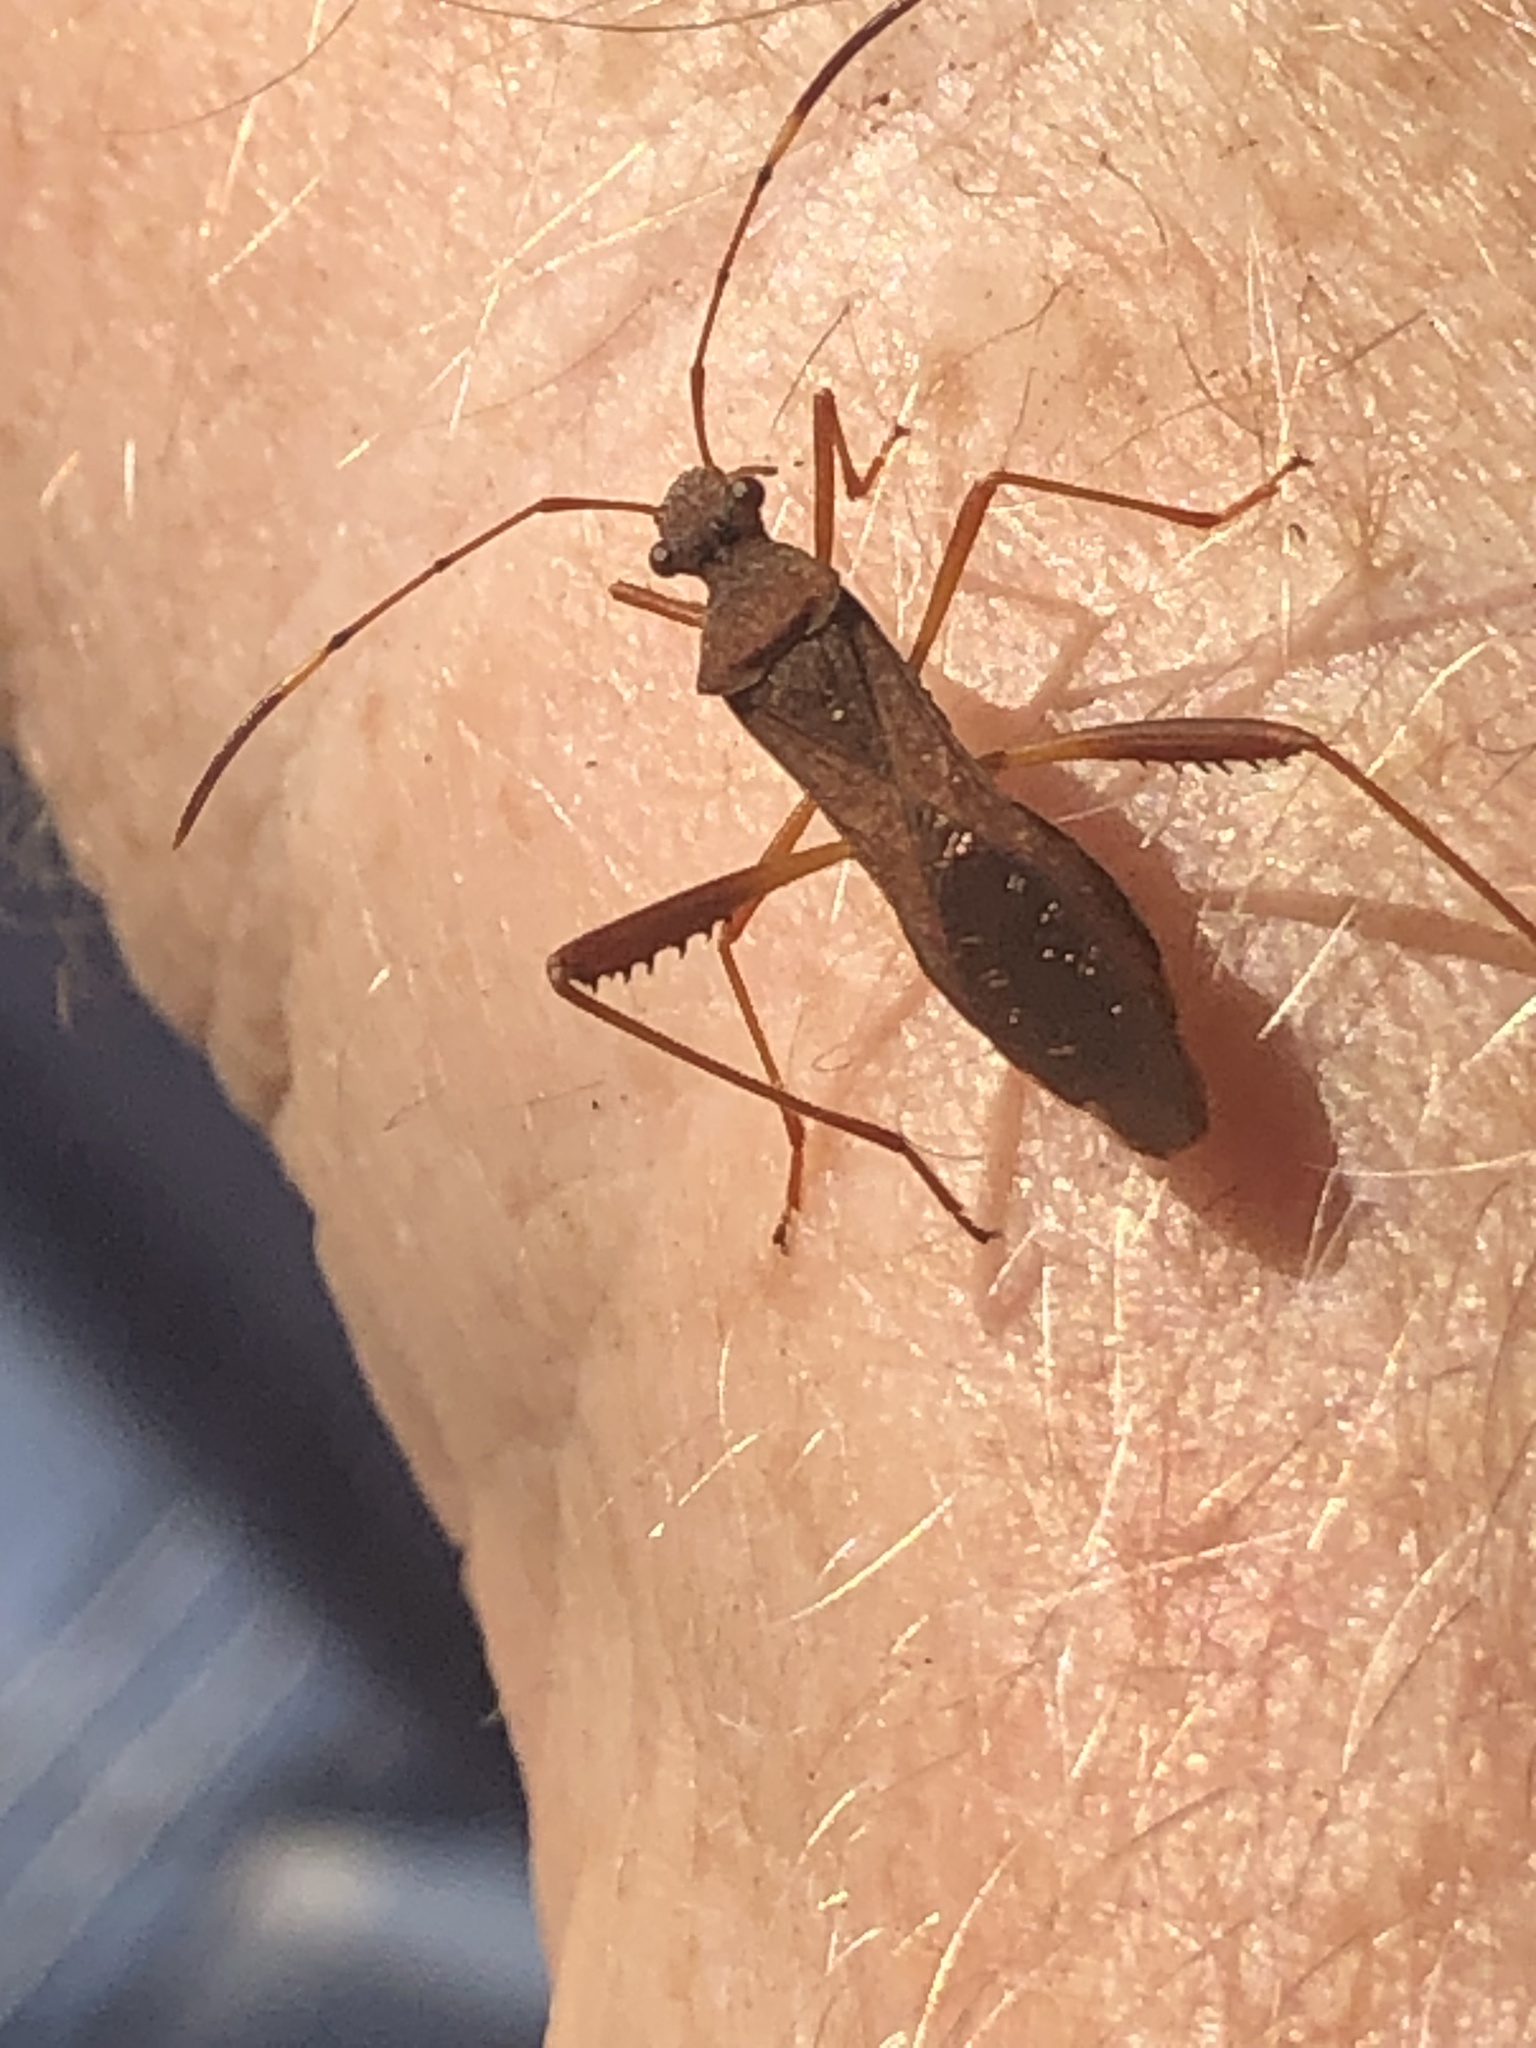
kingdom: Animalia
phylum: Arthropoda
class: Insecta
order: Hemiptera
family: Alydidae
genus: Megalotomus
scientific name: Megalotomus quinquespinosus
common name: Lupine bug
